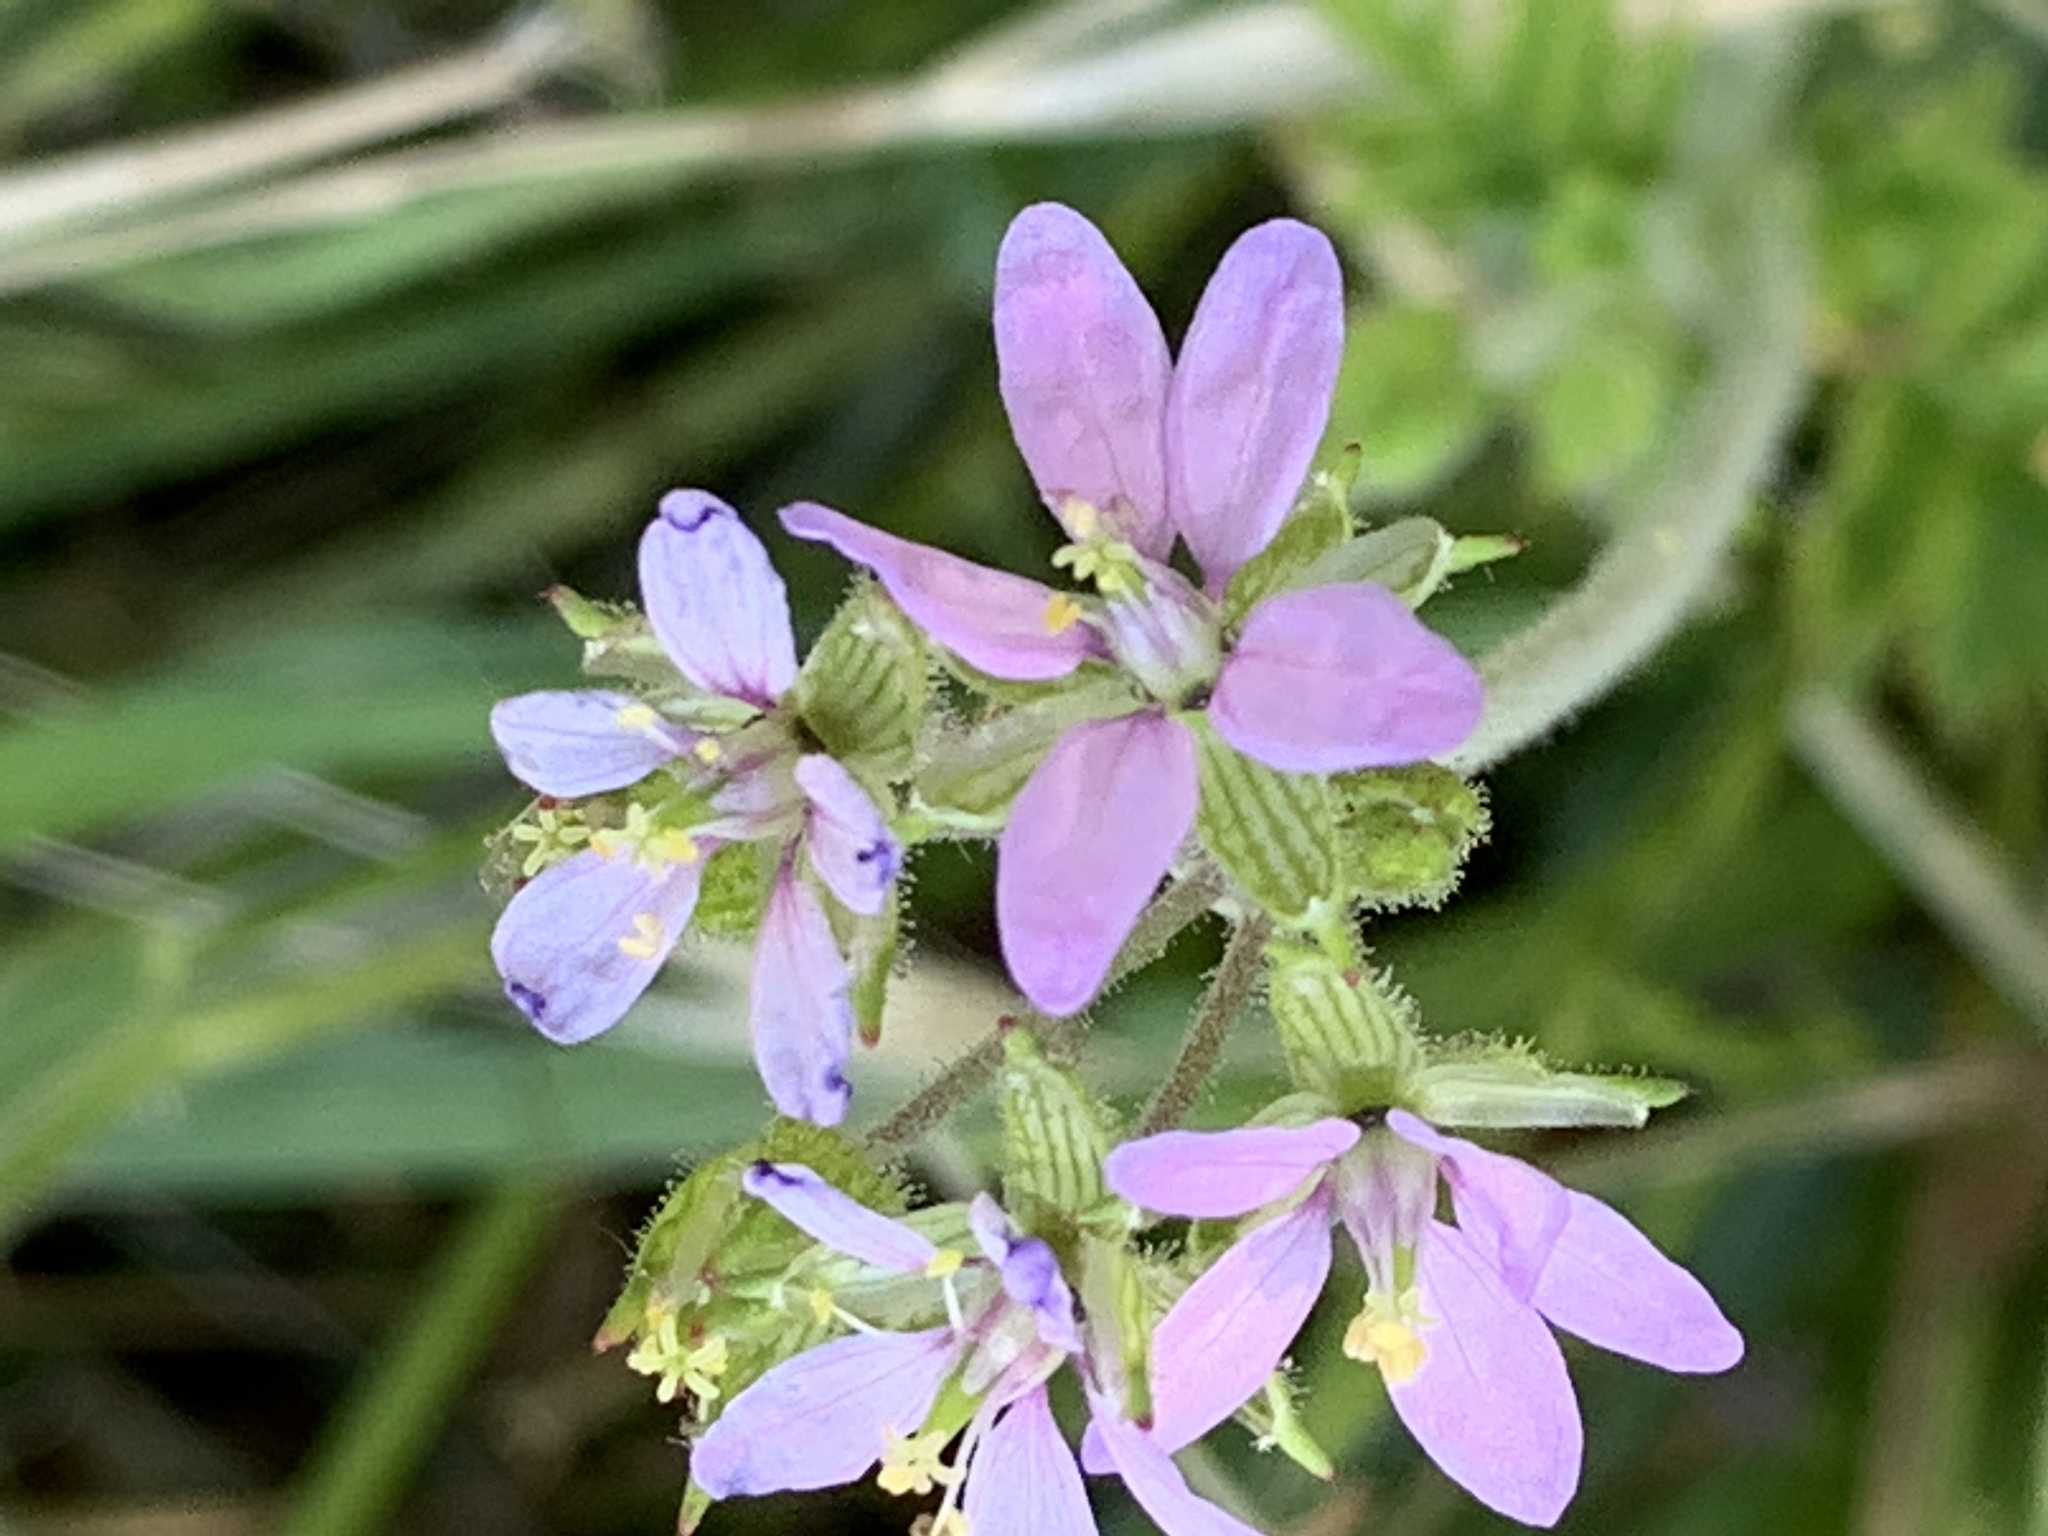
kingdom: Plantae
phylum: Tracheophyta
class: Magnoliopsida
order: Geraniales
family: Geraniaceae
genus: Erodium
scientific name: Erodium moschatum
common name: Musk stork's-bill
